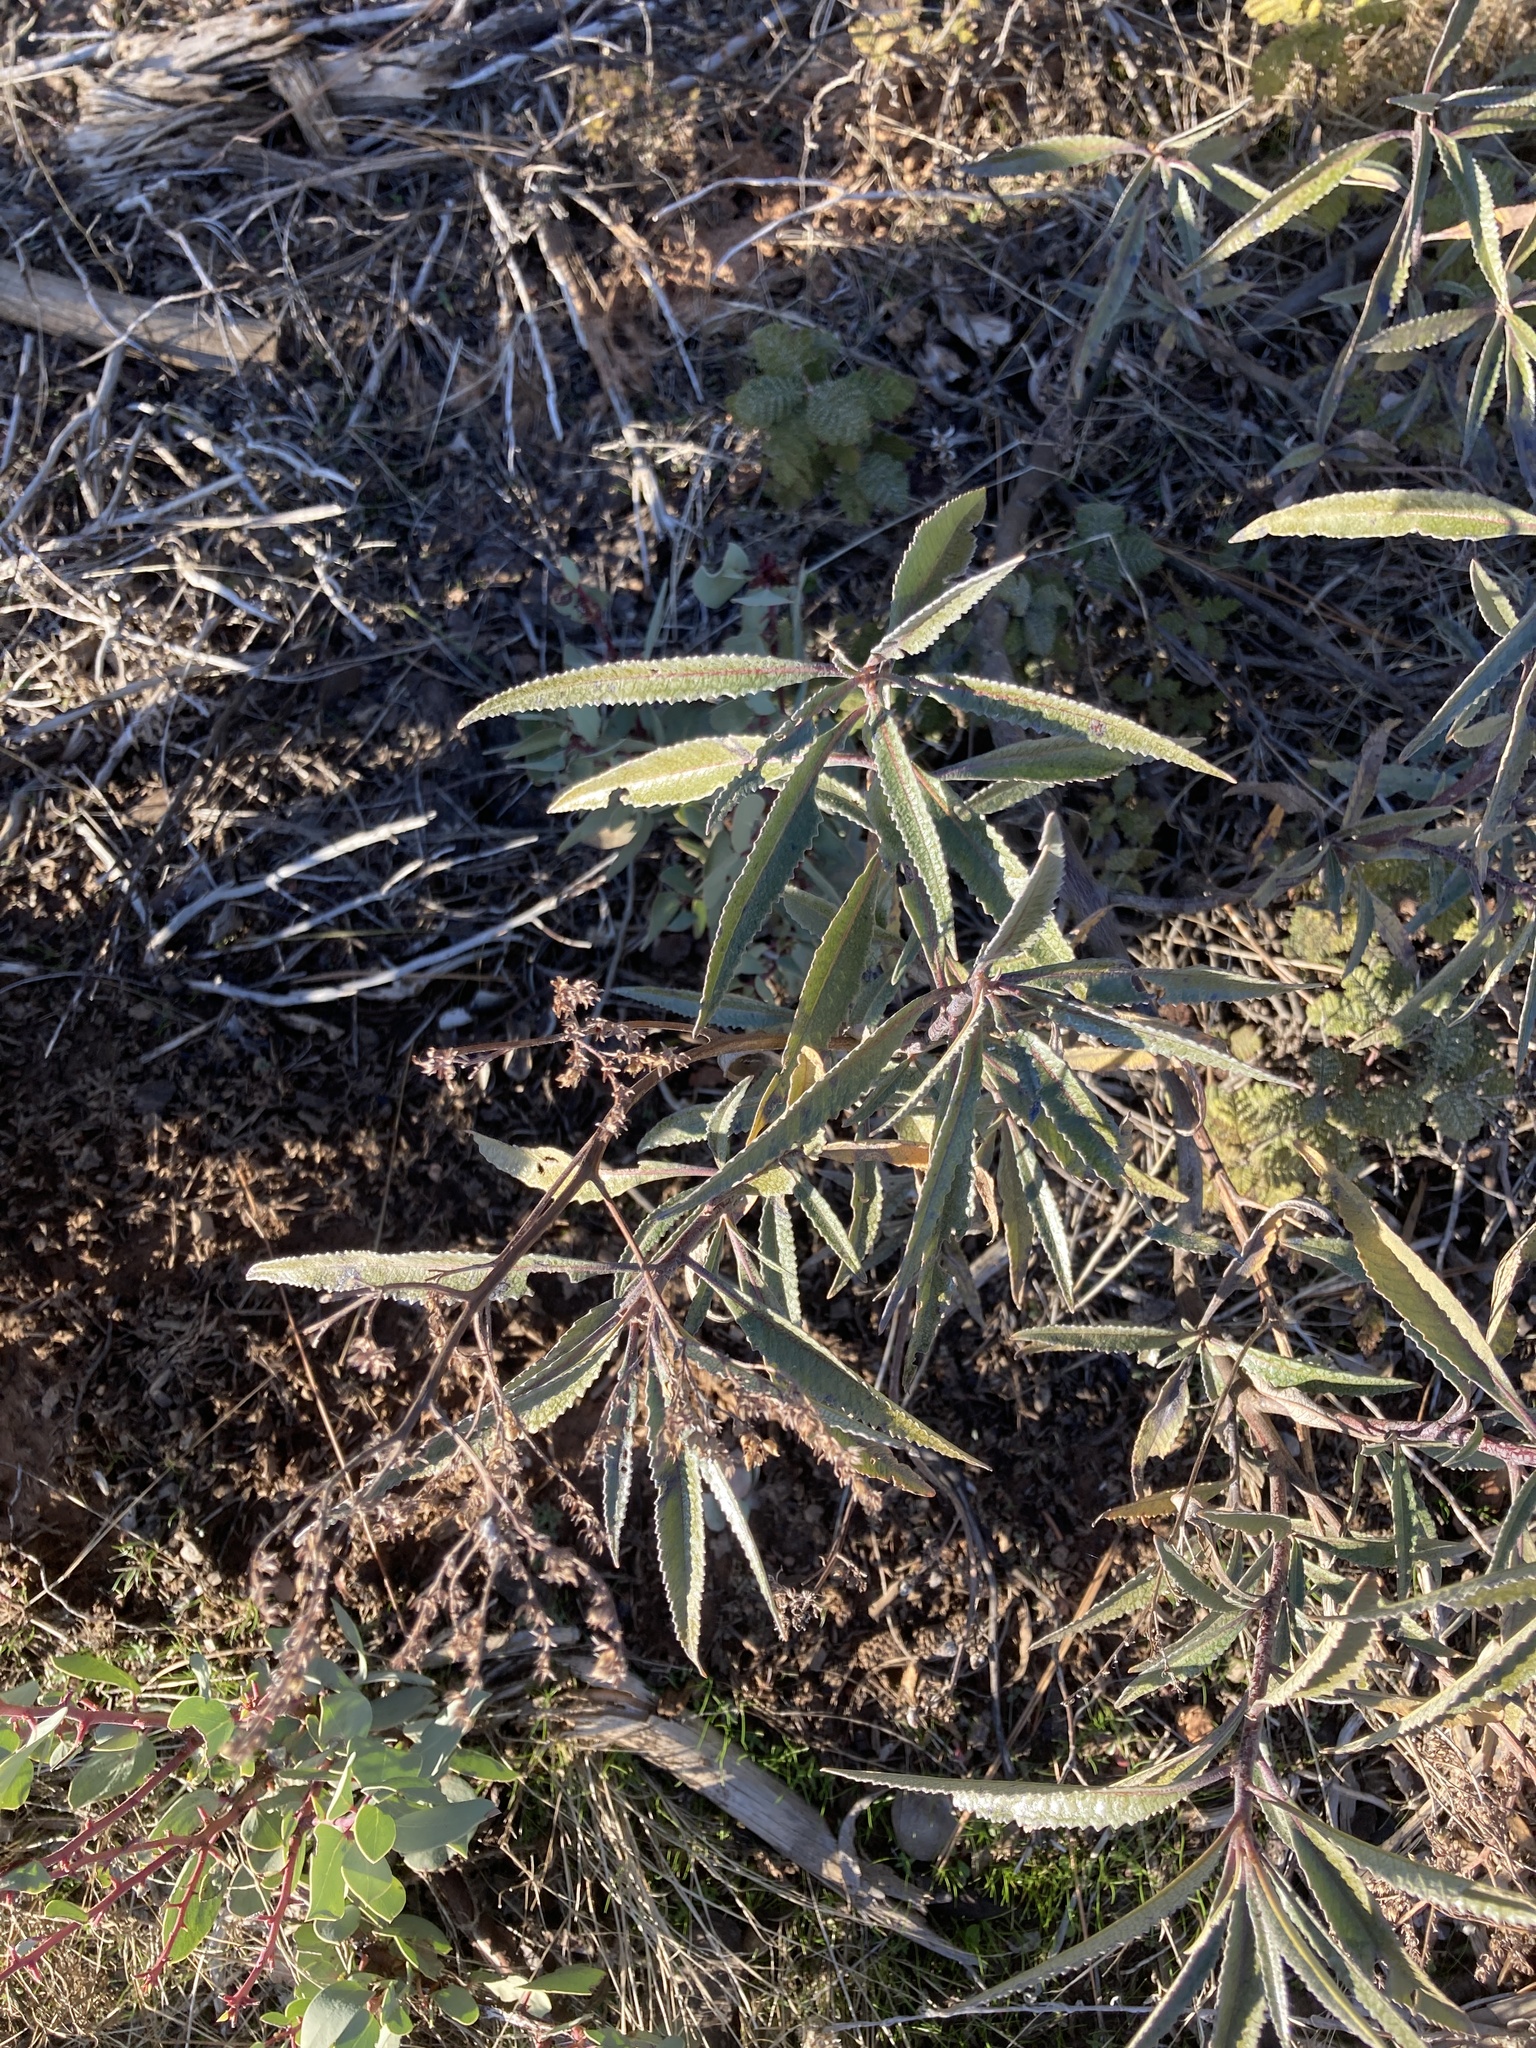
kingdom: Plantae
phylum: Tracheophyta
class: Magnoliopsida
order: Boraginales
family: Namaceae
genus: Eriodictyon
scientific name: Eriodictyon californicum
